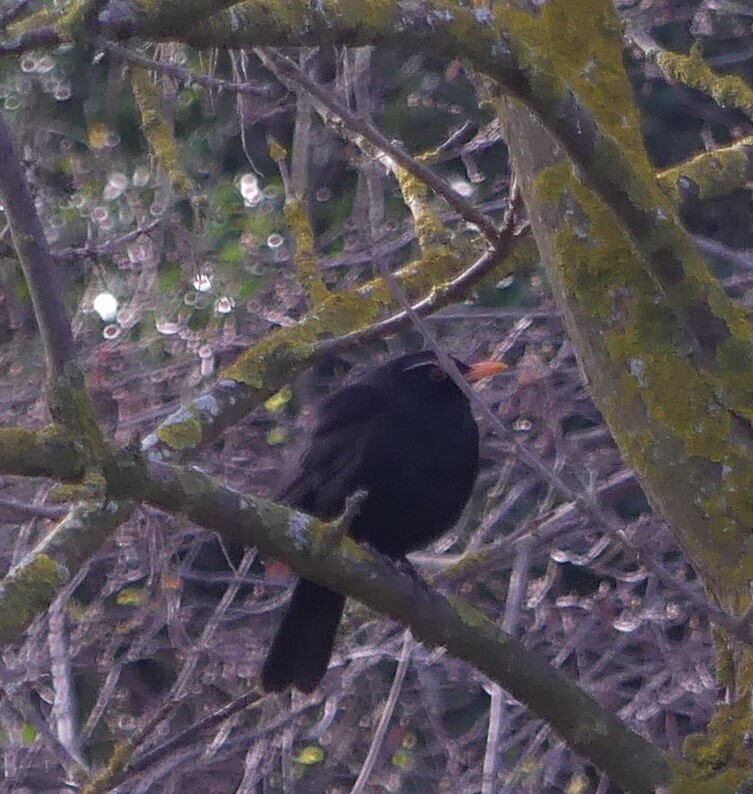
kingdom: Animalia
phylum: Chordata
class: Aves
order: Passeriformes
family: Turdidae
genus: Turdus
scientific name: Turdus merula
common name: Common blackbird
